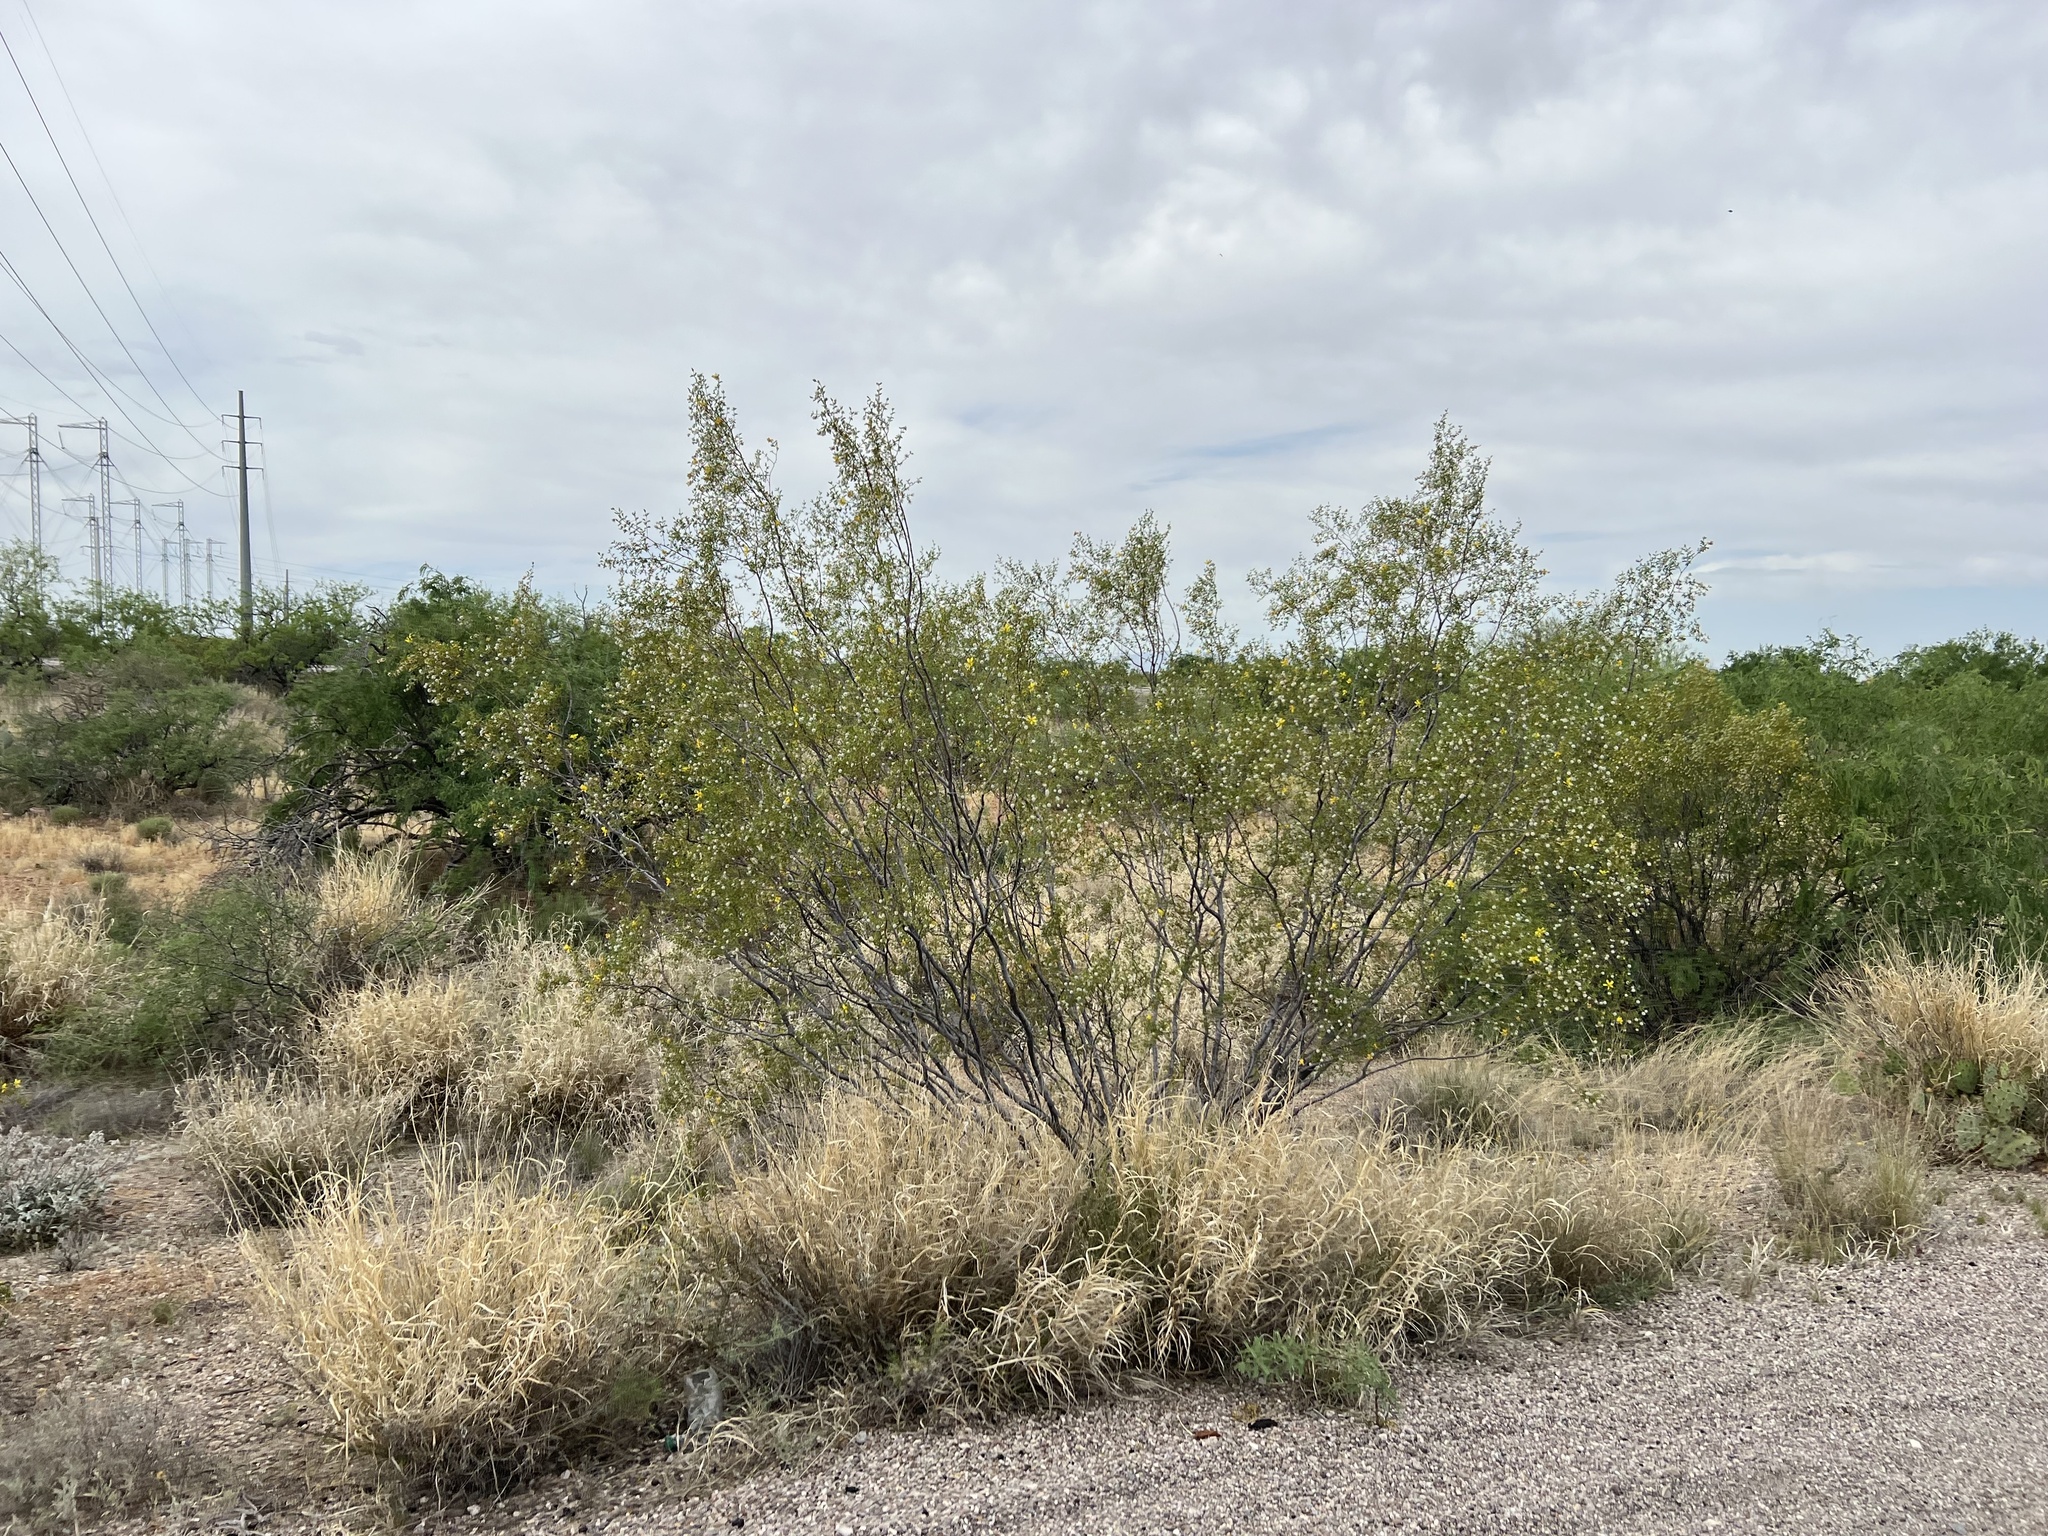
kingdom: Plantae
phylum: Tracheophyta
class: Magnoliopsida
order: Zygophyllales
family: Zygophyllaceae
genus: Larrea
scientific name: Larrea tridentata
